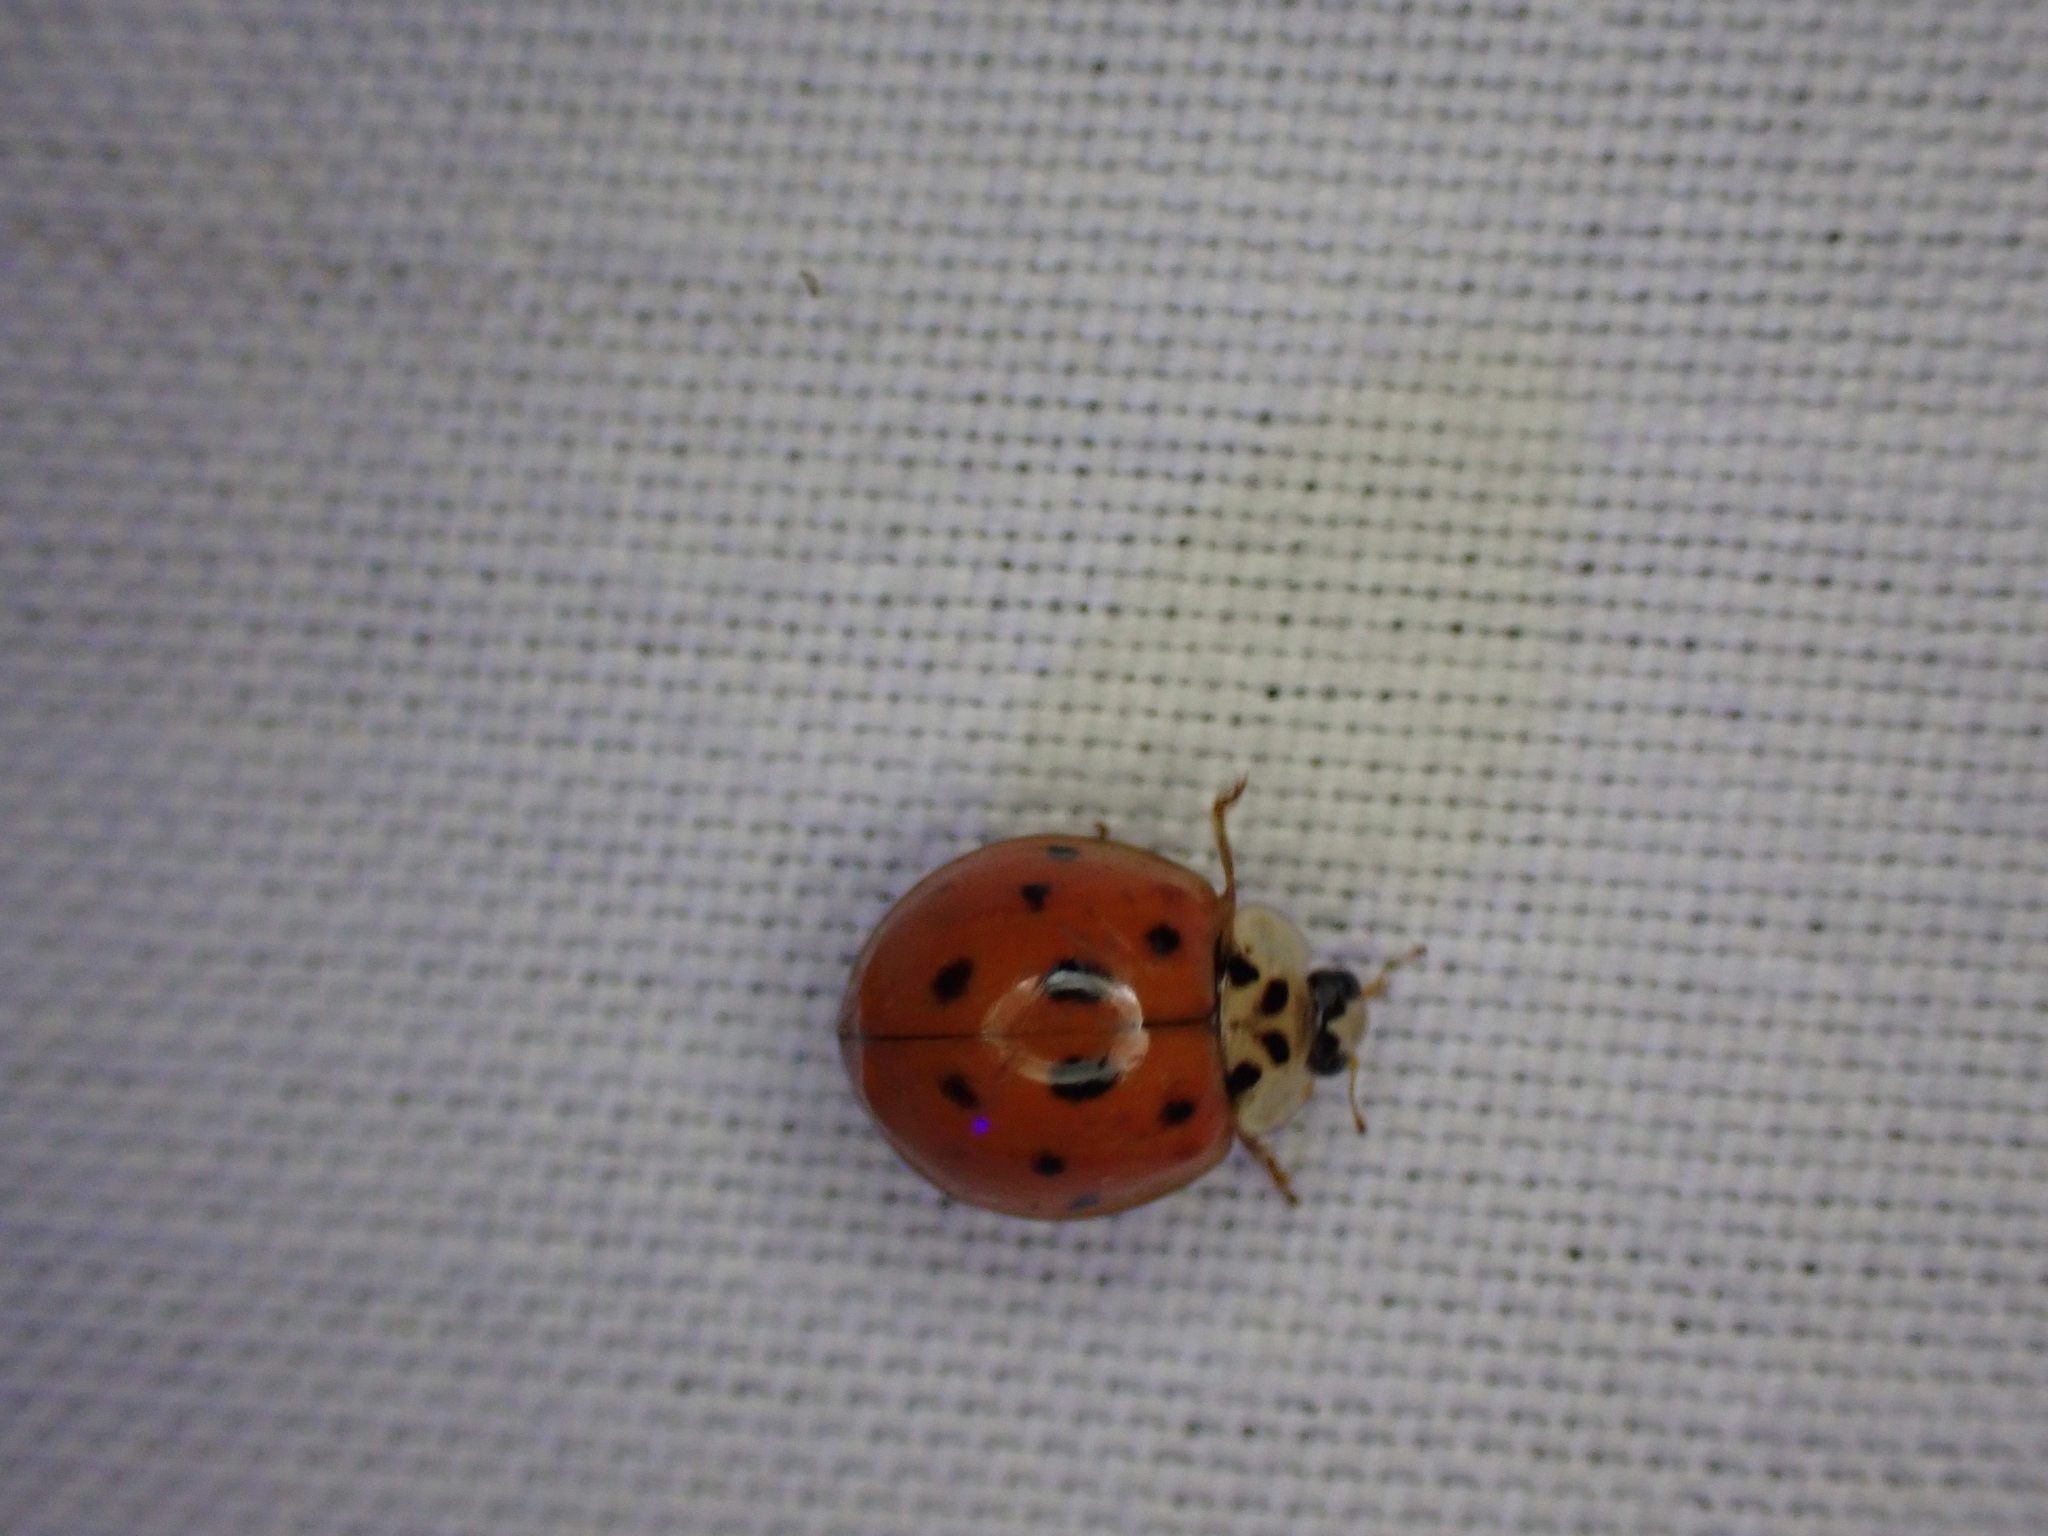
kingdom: Animalia
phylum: Arthropoda
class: Insecta
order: Coleoptera
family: Coccinellidae
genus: Harmonia
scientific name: Harmonia axyridis
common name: Harlequin ladybird
